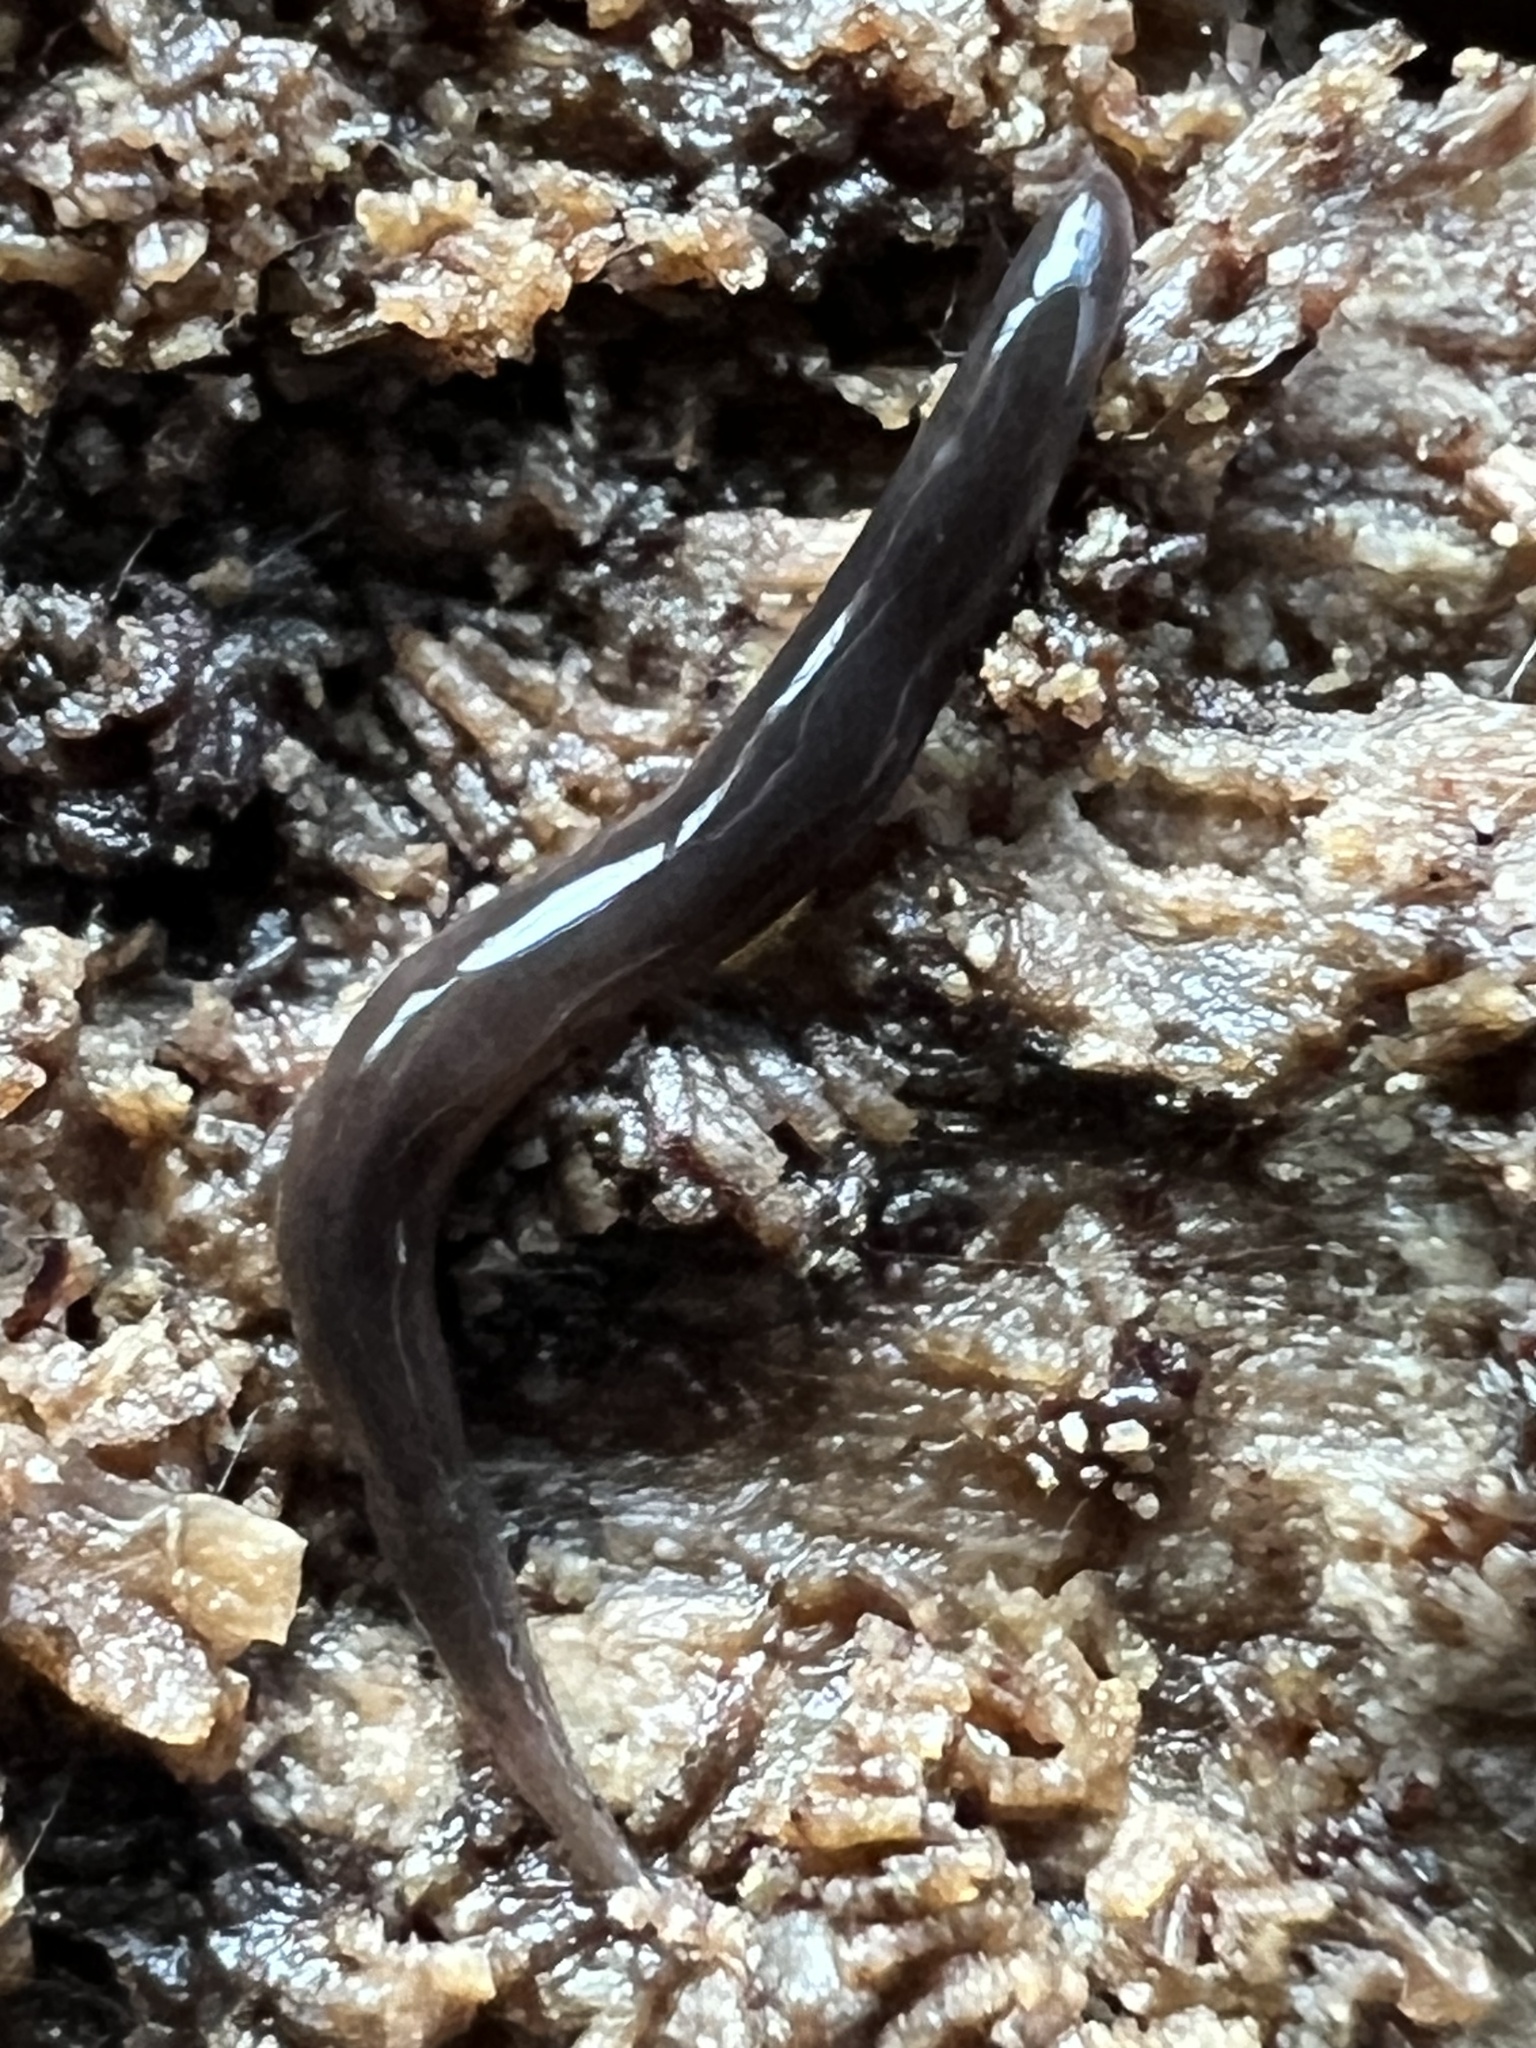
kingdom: Animalia
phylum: Platyhelminthes
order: Tricladida
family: Geoplanidae
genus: Microplana
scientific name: Microplana terrestris
